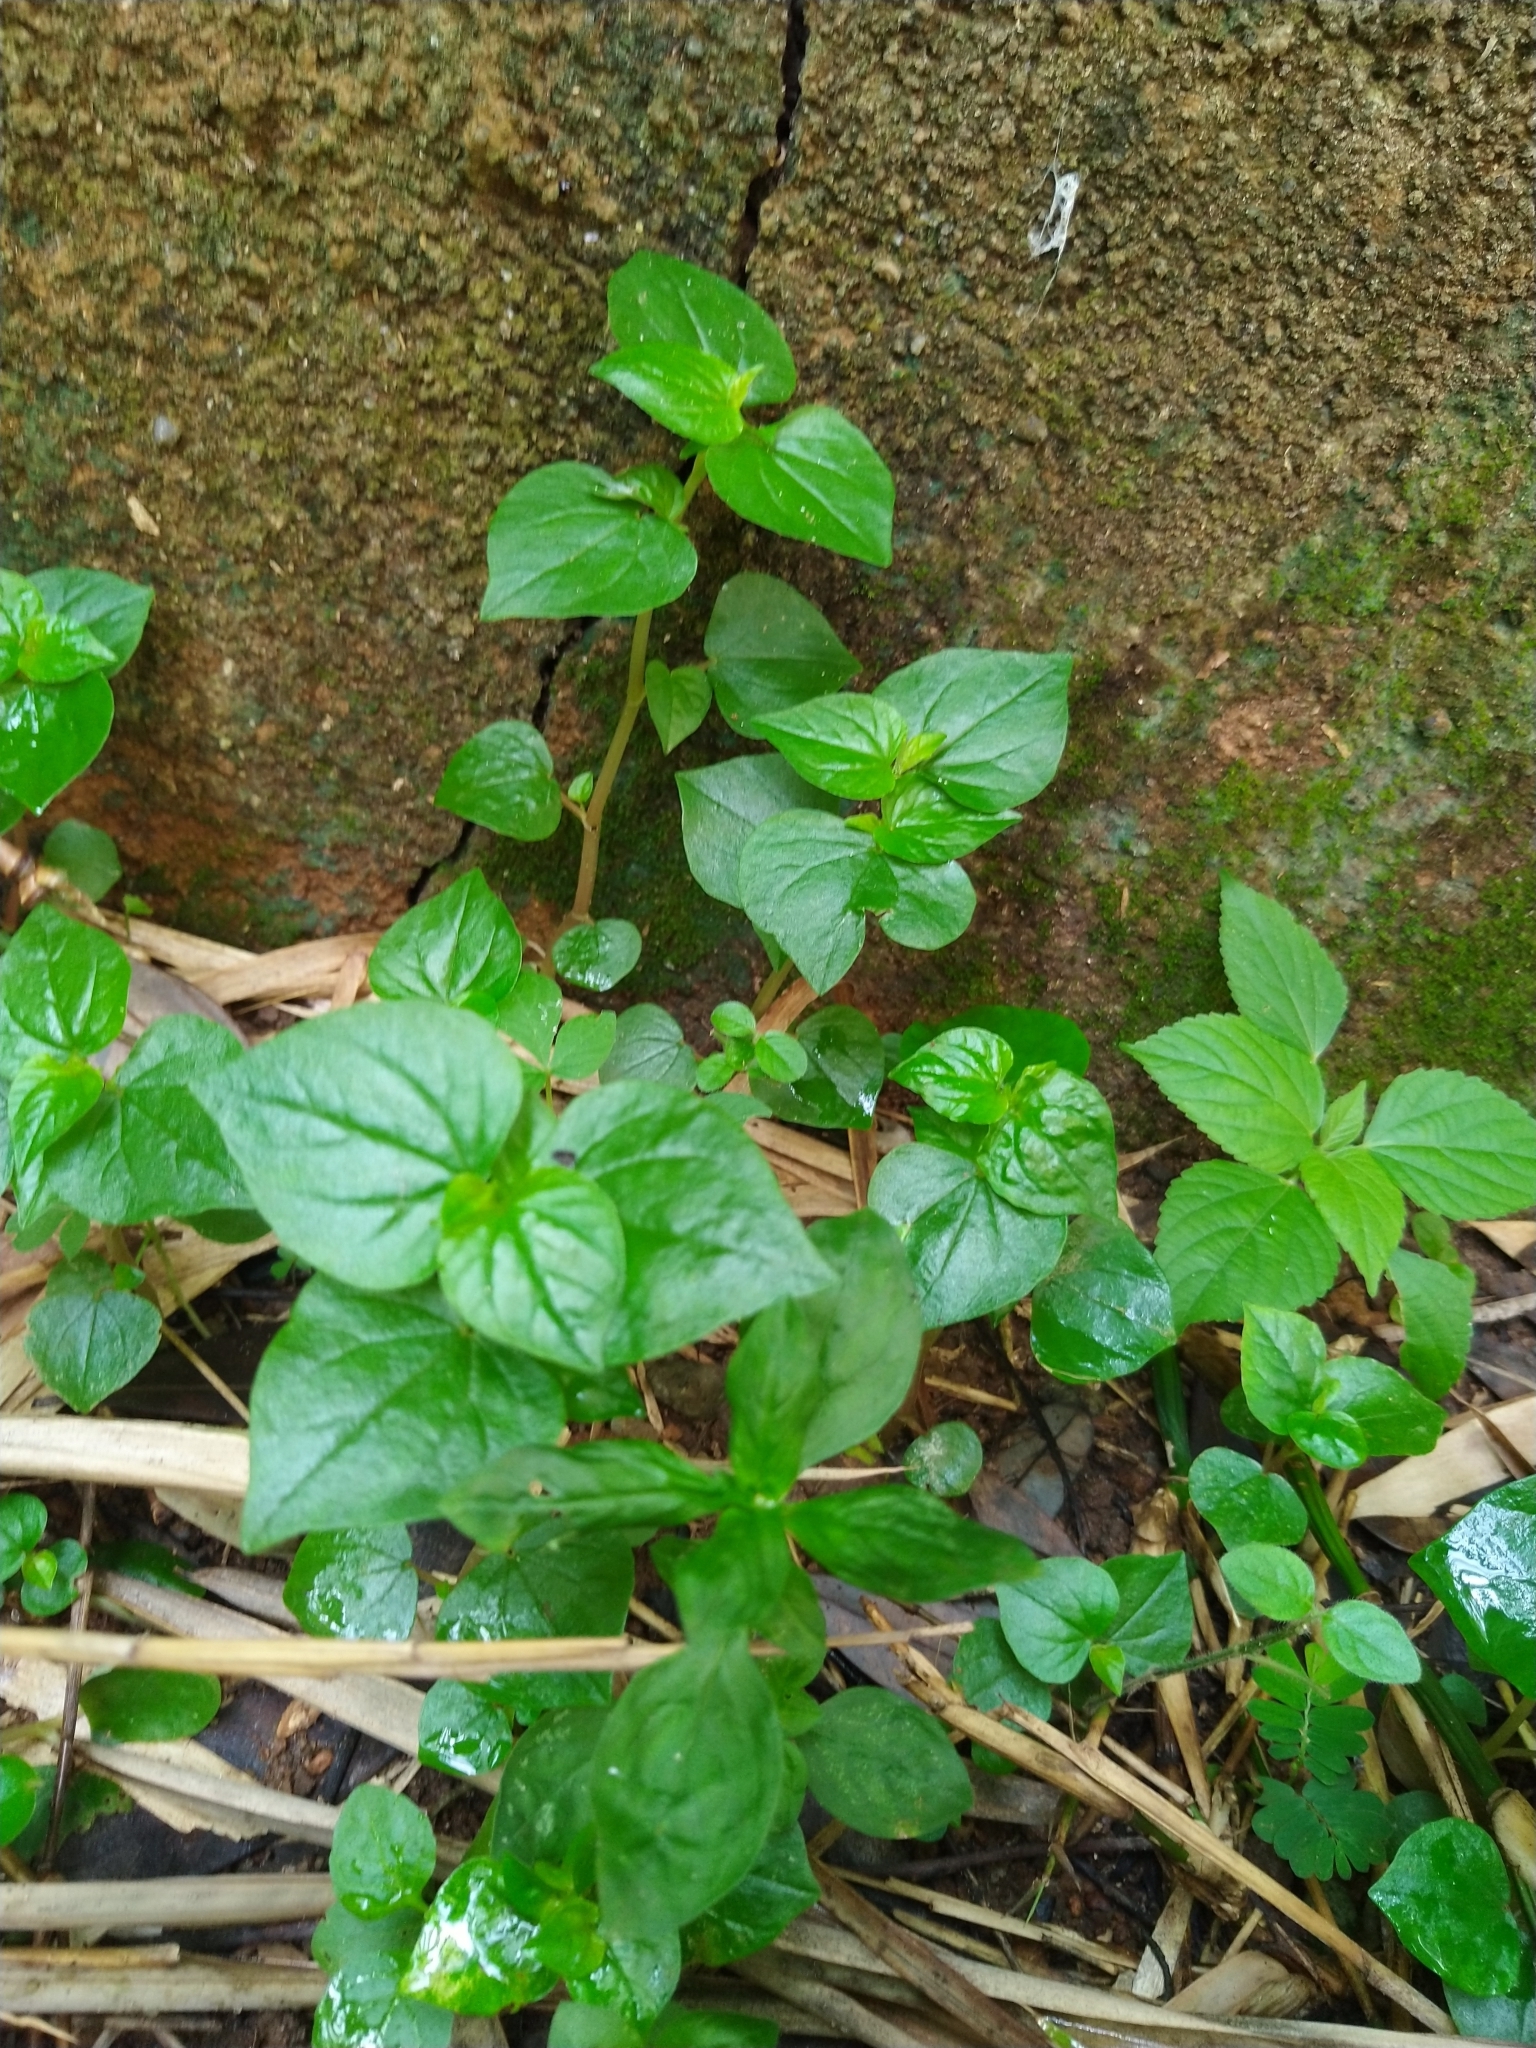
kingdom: Plantae
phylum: Tracheophyta
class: Magnoliopsida
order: Piperales
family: Piperaceae
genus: Peperomia
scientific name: Peperomia pellucida
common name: Man to man
